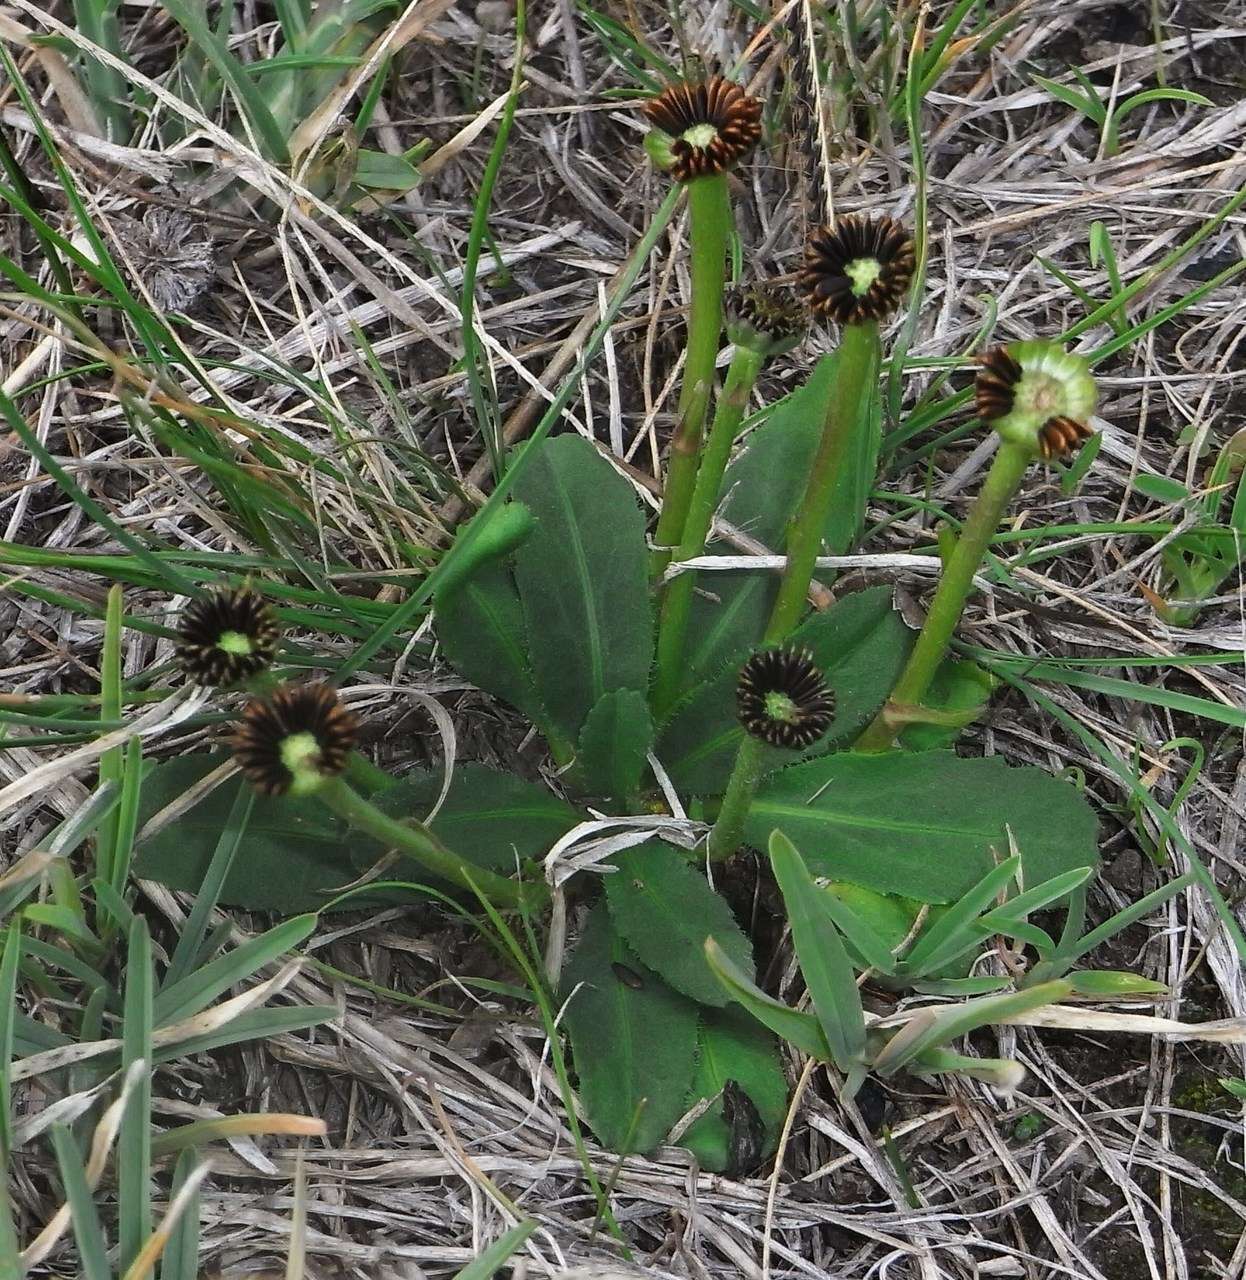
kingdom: Plantae
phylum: Tracheophyta
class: Magnoliopsida
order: Asterales
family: Asteraceae
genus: Solenogyne
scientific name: Solenogyne dominii
